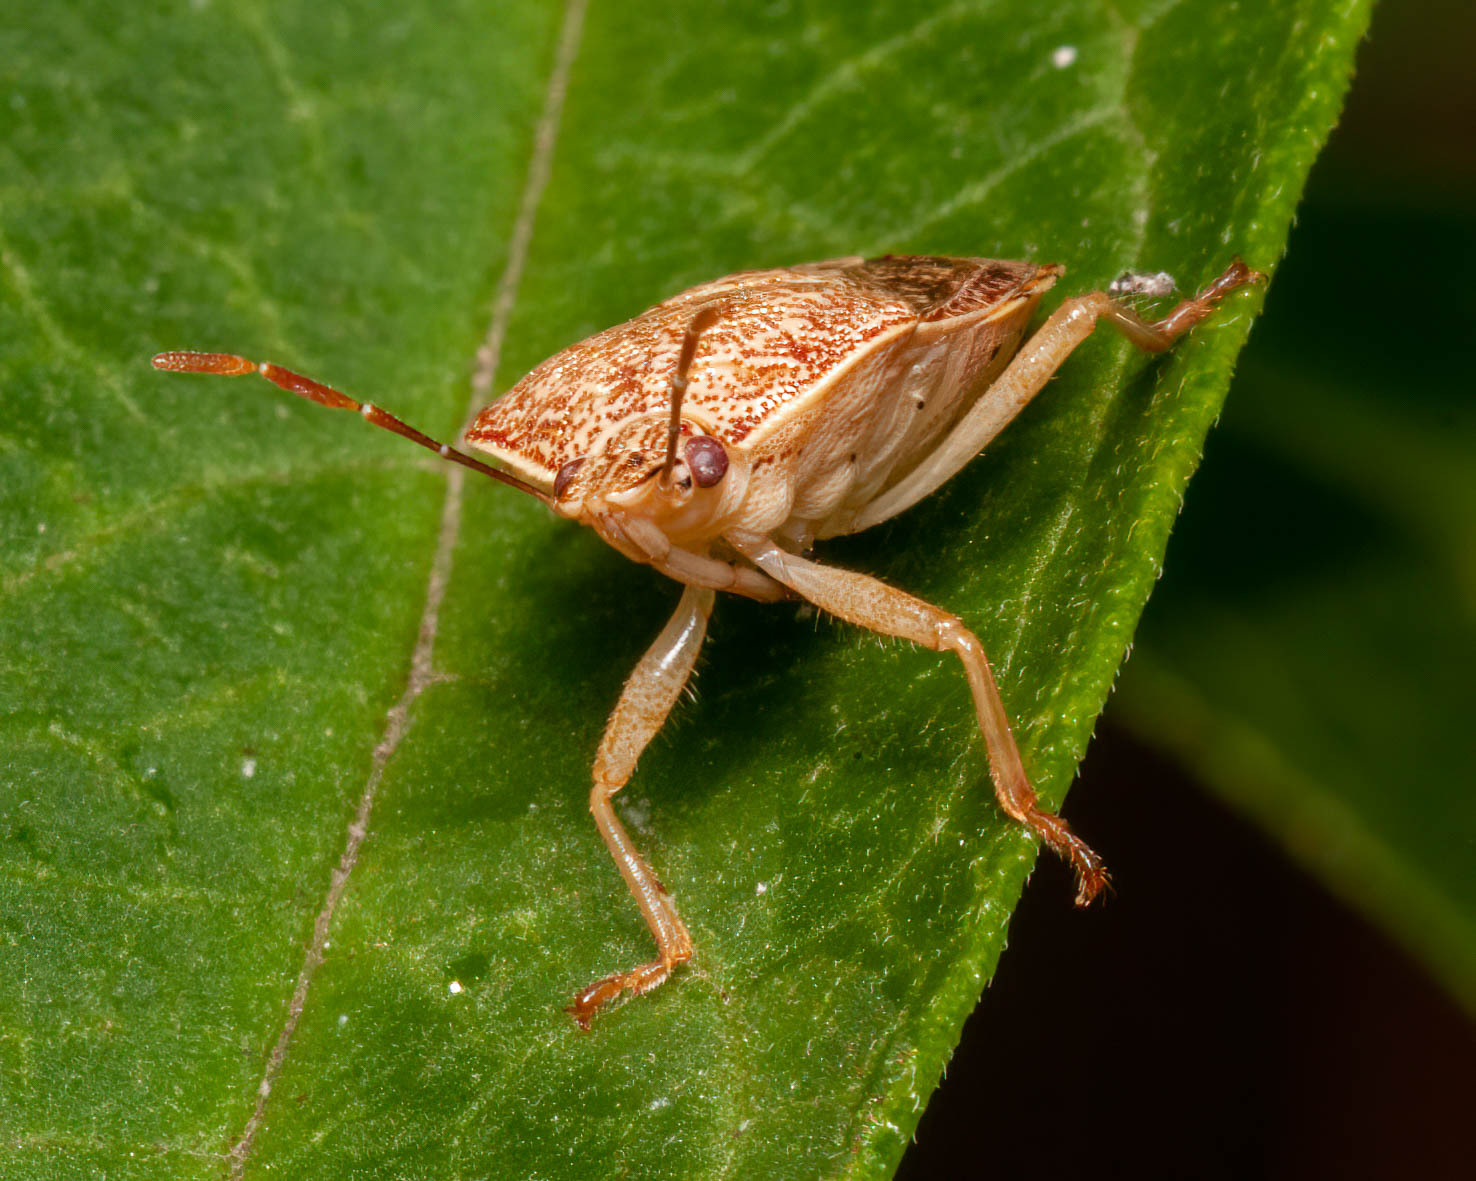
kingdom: Animalia
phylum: Arthropoda
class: Insecta
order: Hemiptera
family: Pentatomidae
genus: Podisus
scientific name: Podisus placidus
